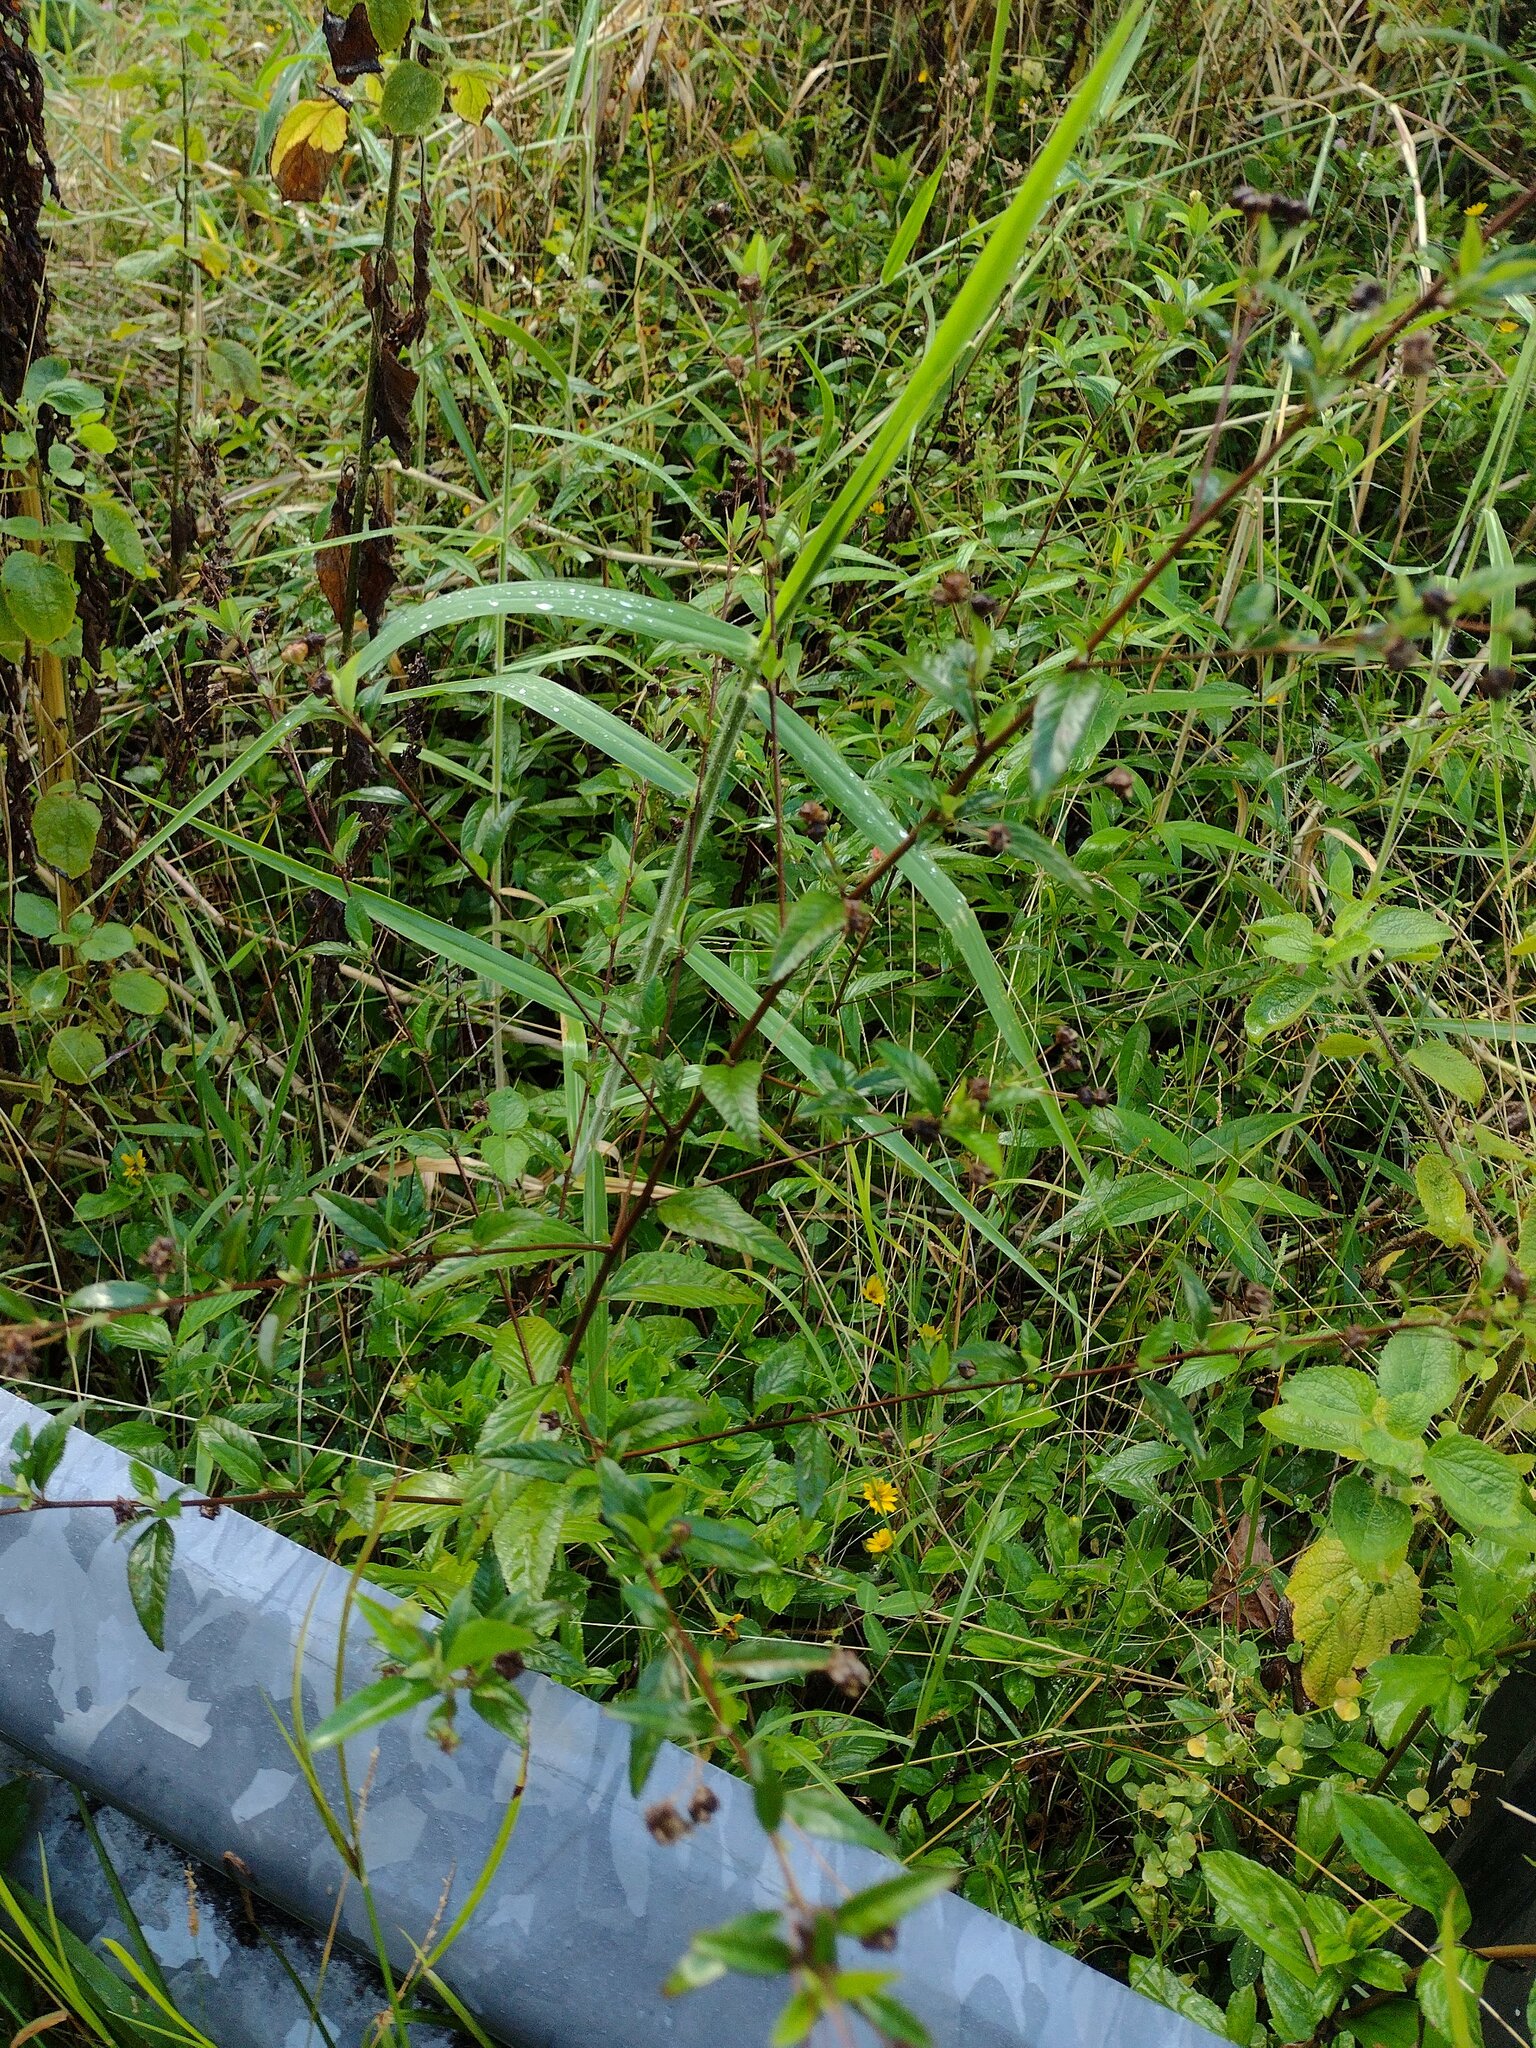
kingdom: Plantae
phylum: Tracheophyta
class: Liliopsida
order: Poales
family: Poaceae
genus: Urochloa
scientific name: Urochloa mutica
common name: Para grass
